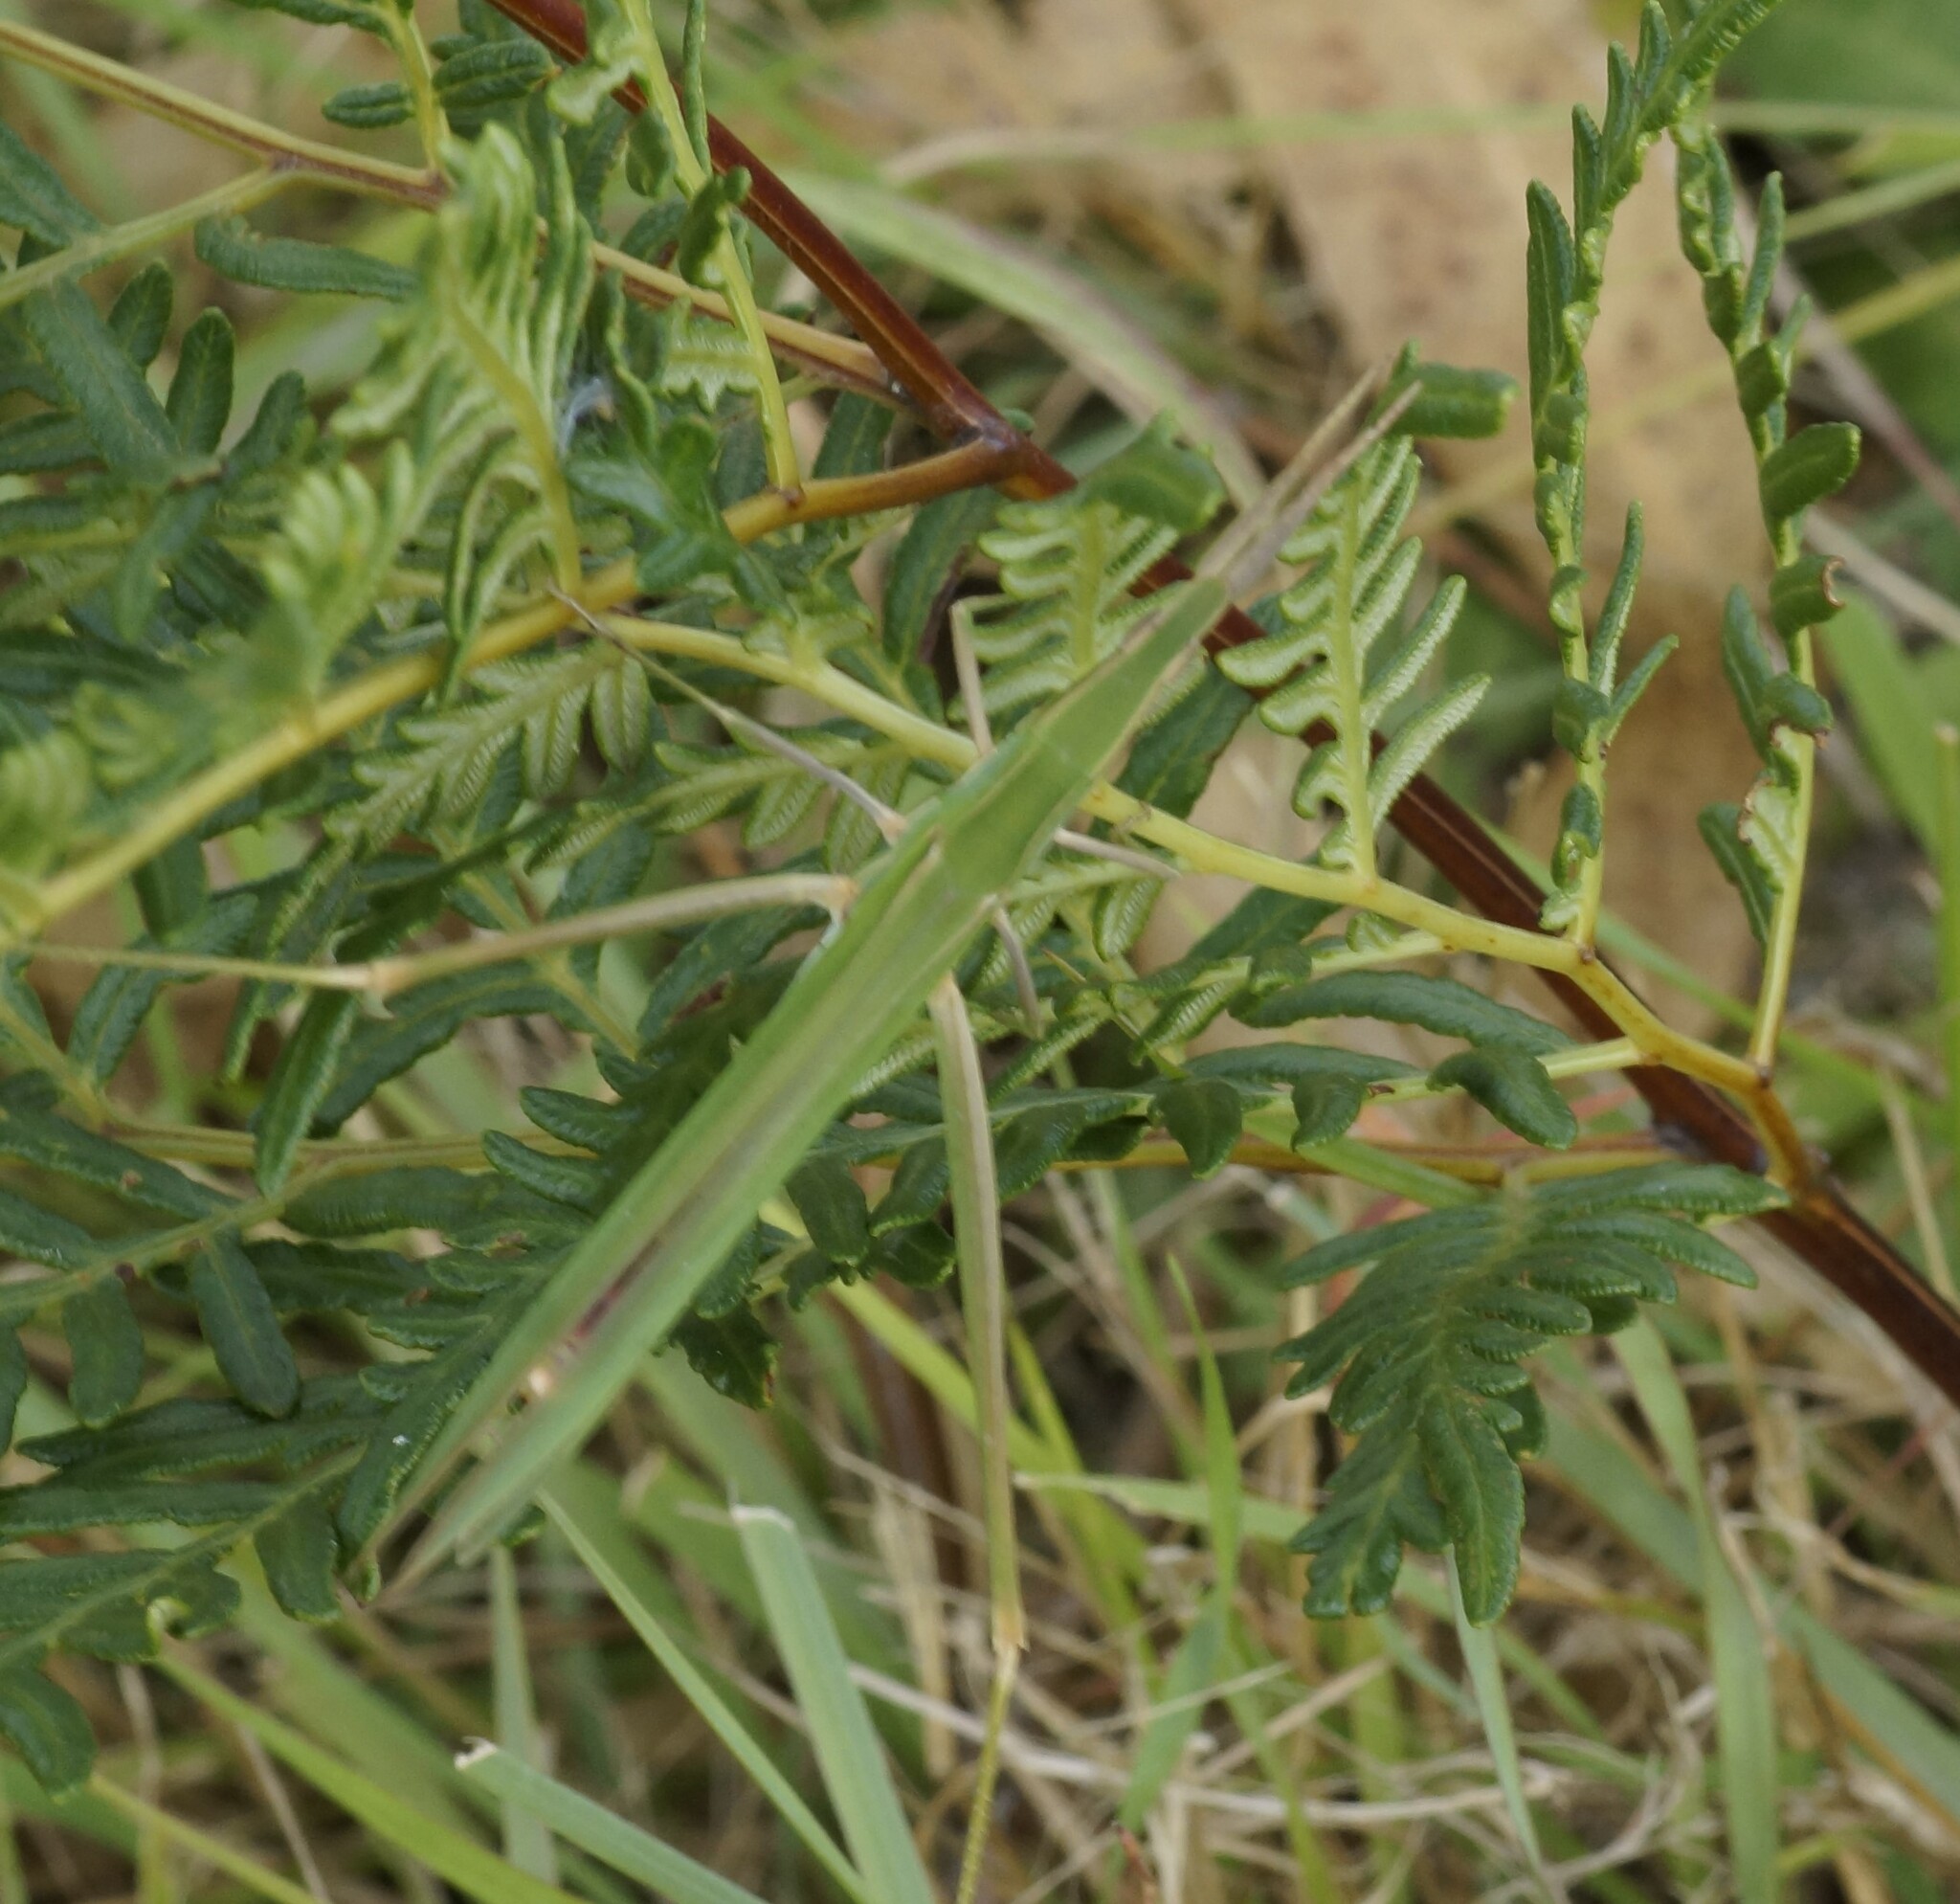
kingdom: Animalia
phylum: Arthropoda
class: Insecta
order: Orthoptera
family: Acrididae
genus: Acrida
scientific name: Acrida conica
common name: Giant green slantface
